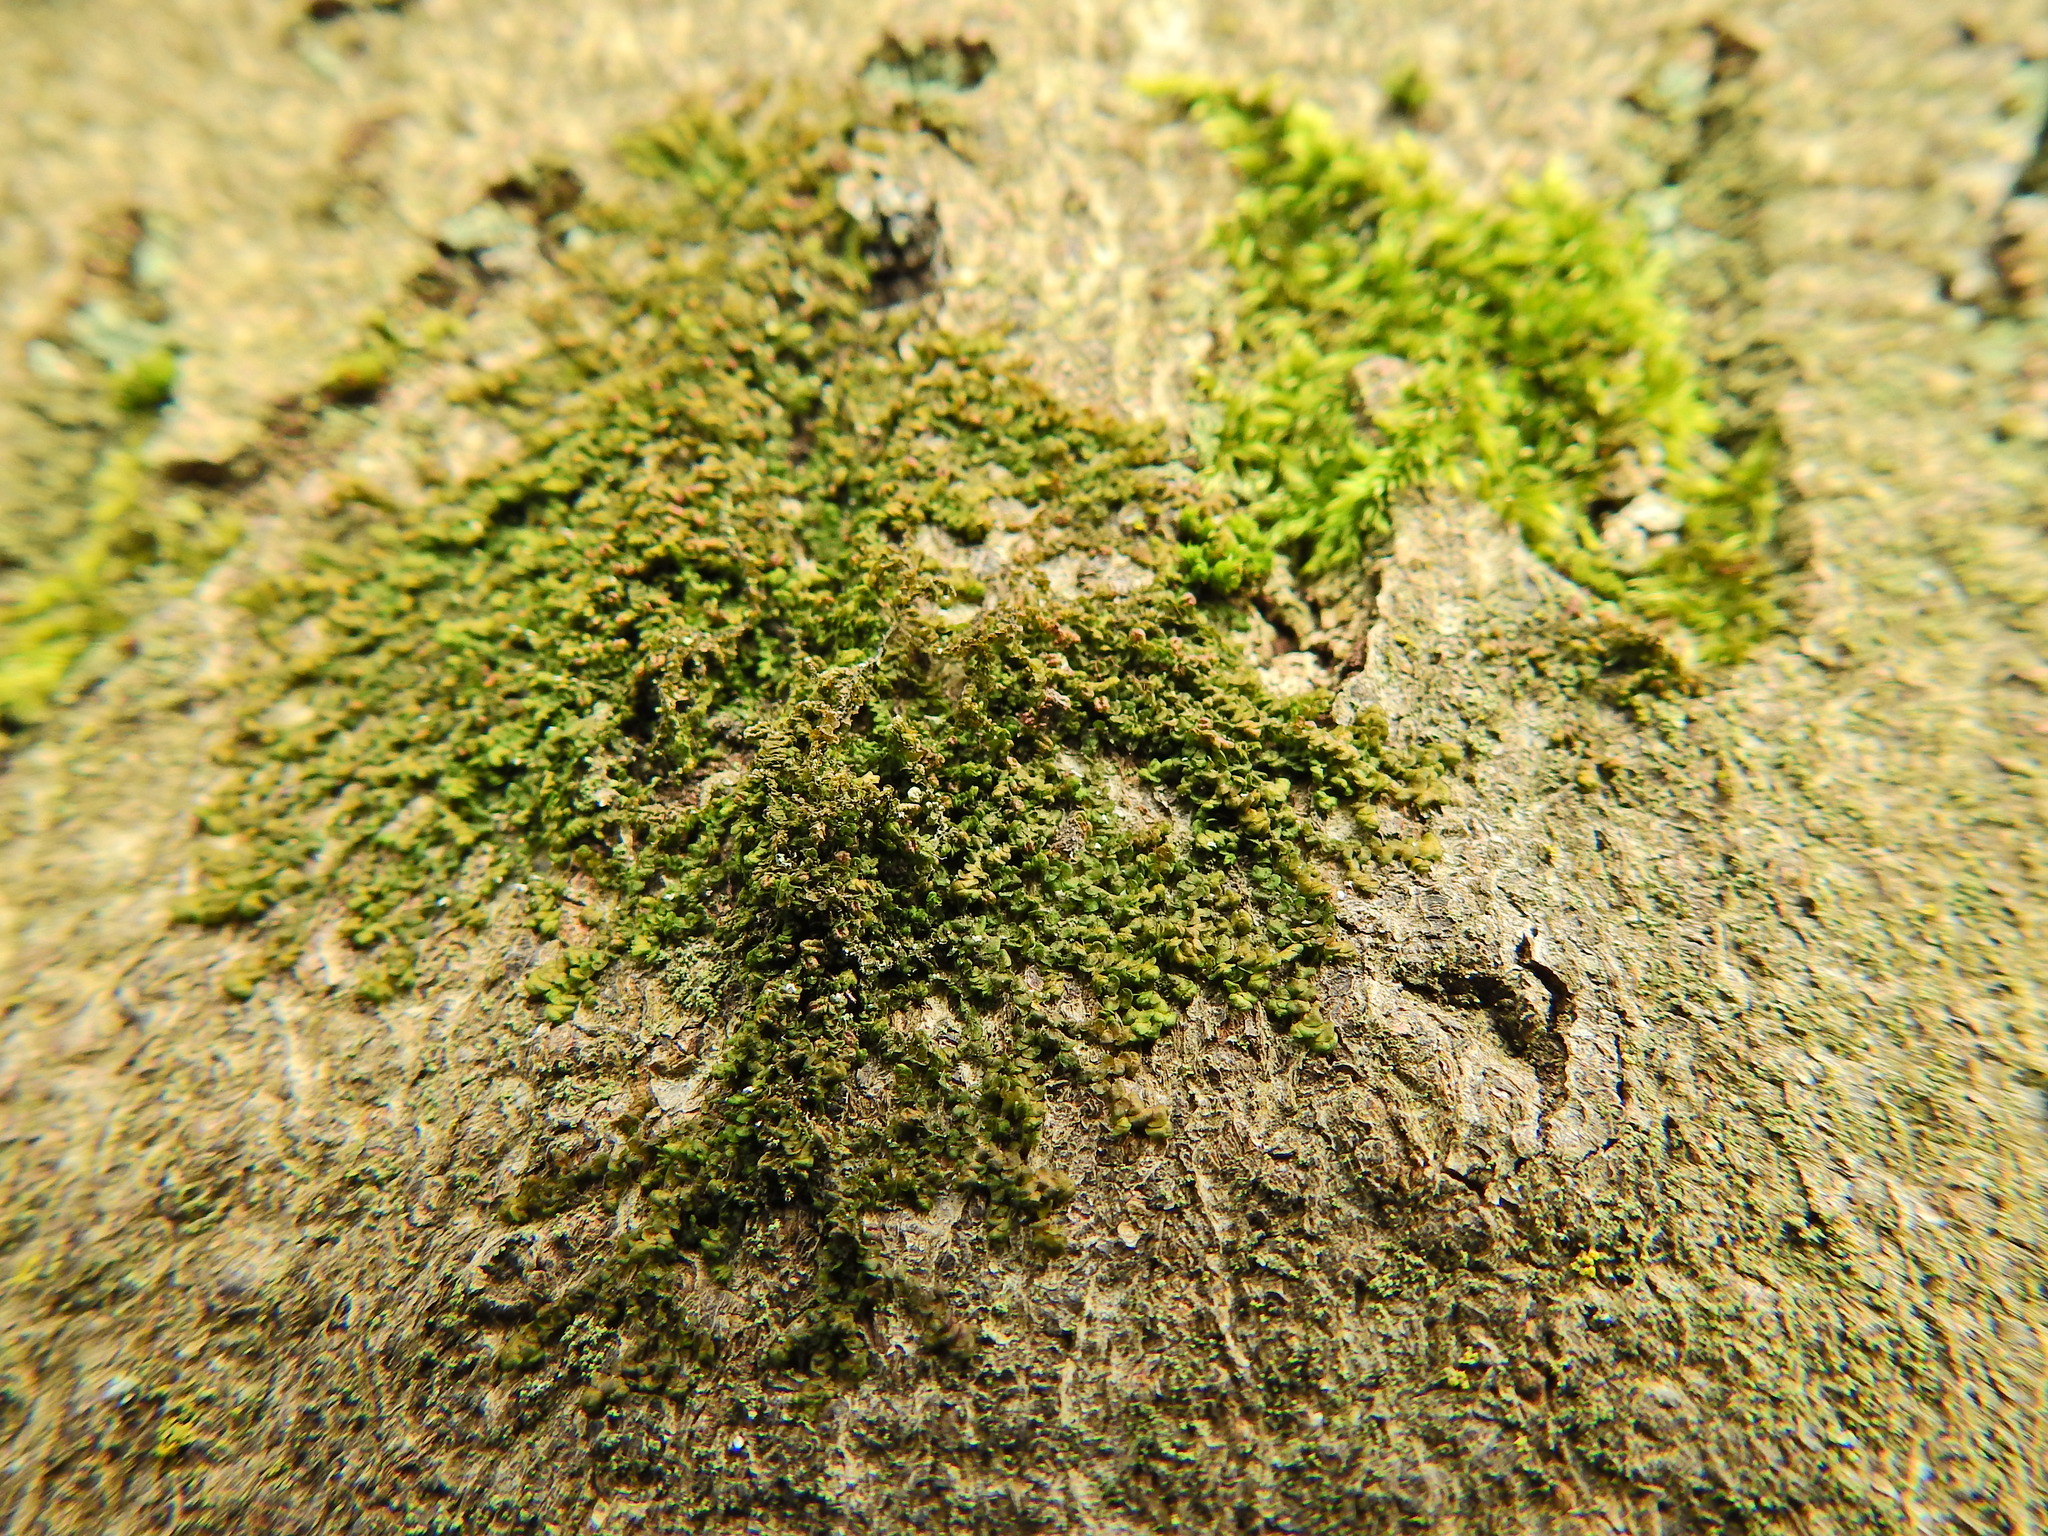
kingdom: Plantae
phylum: Marchantiophyta
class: Jungermanniopsida
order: Porellales
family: Frullaniaceae
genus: Frullania
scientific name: Frullania dilatata
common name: Dilated scalewort
